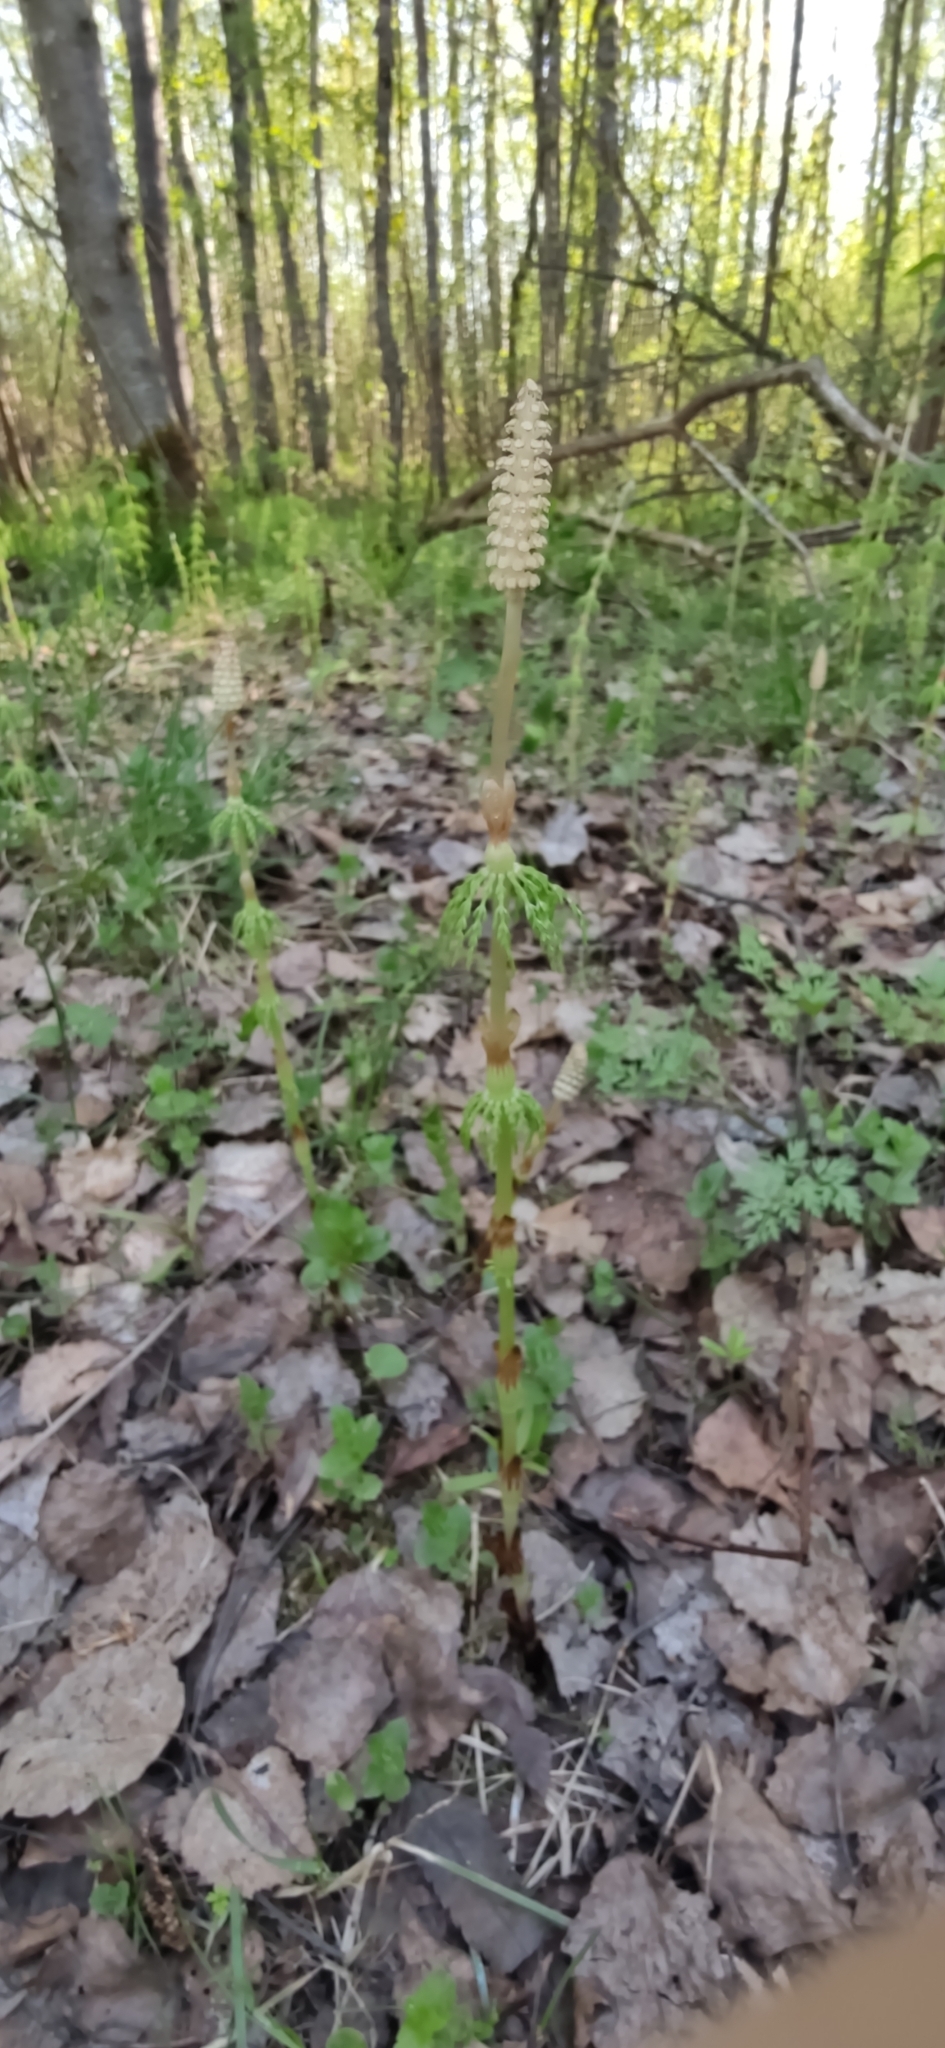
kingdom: Plantae
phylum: Tracheophyta
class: Polypodiopsida
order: Equisetales
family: Equisetaceae
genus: Equisetum
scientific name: Equisetum sylvaticum
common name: Wood horsetail
